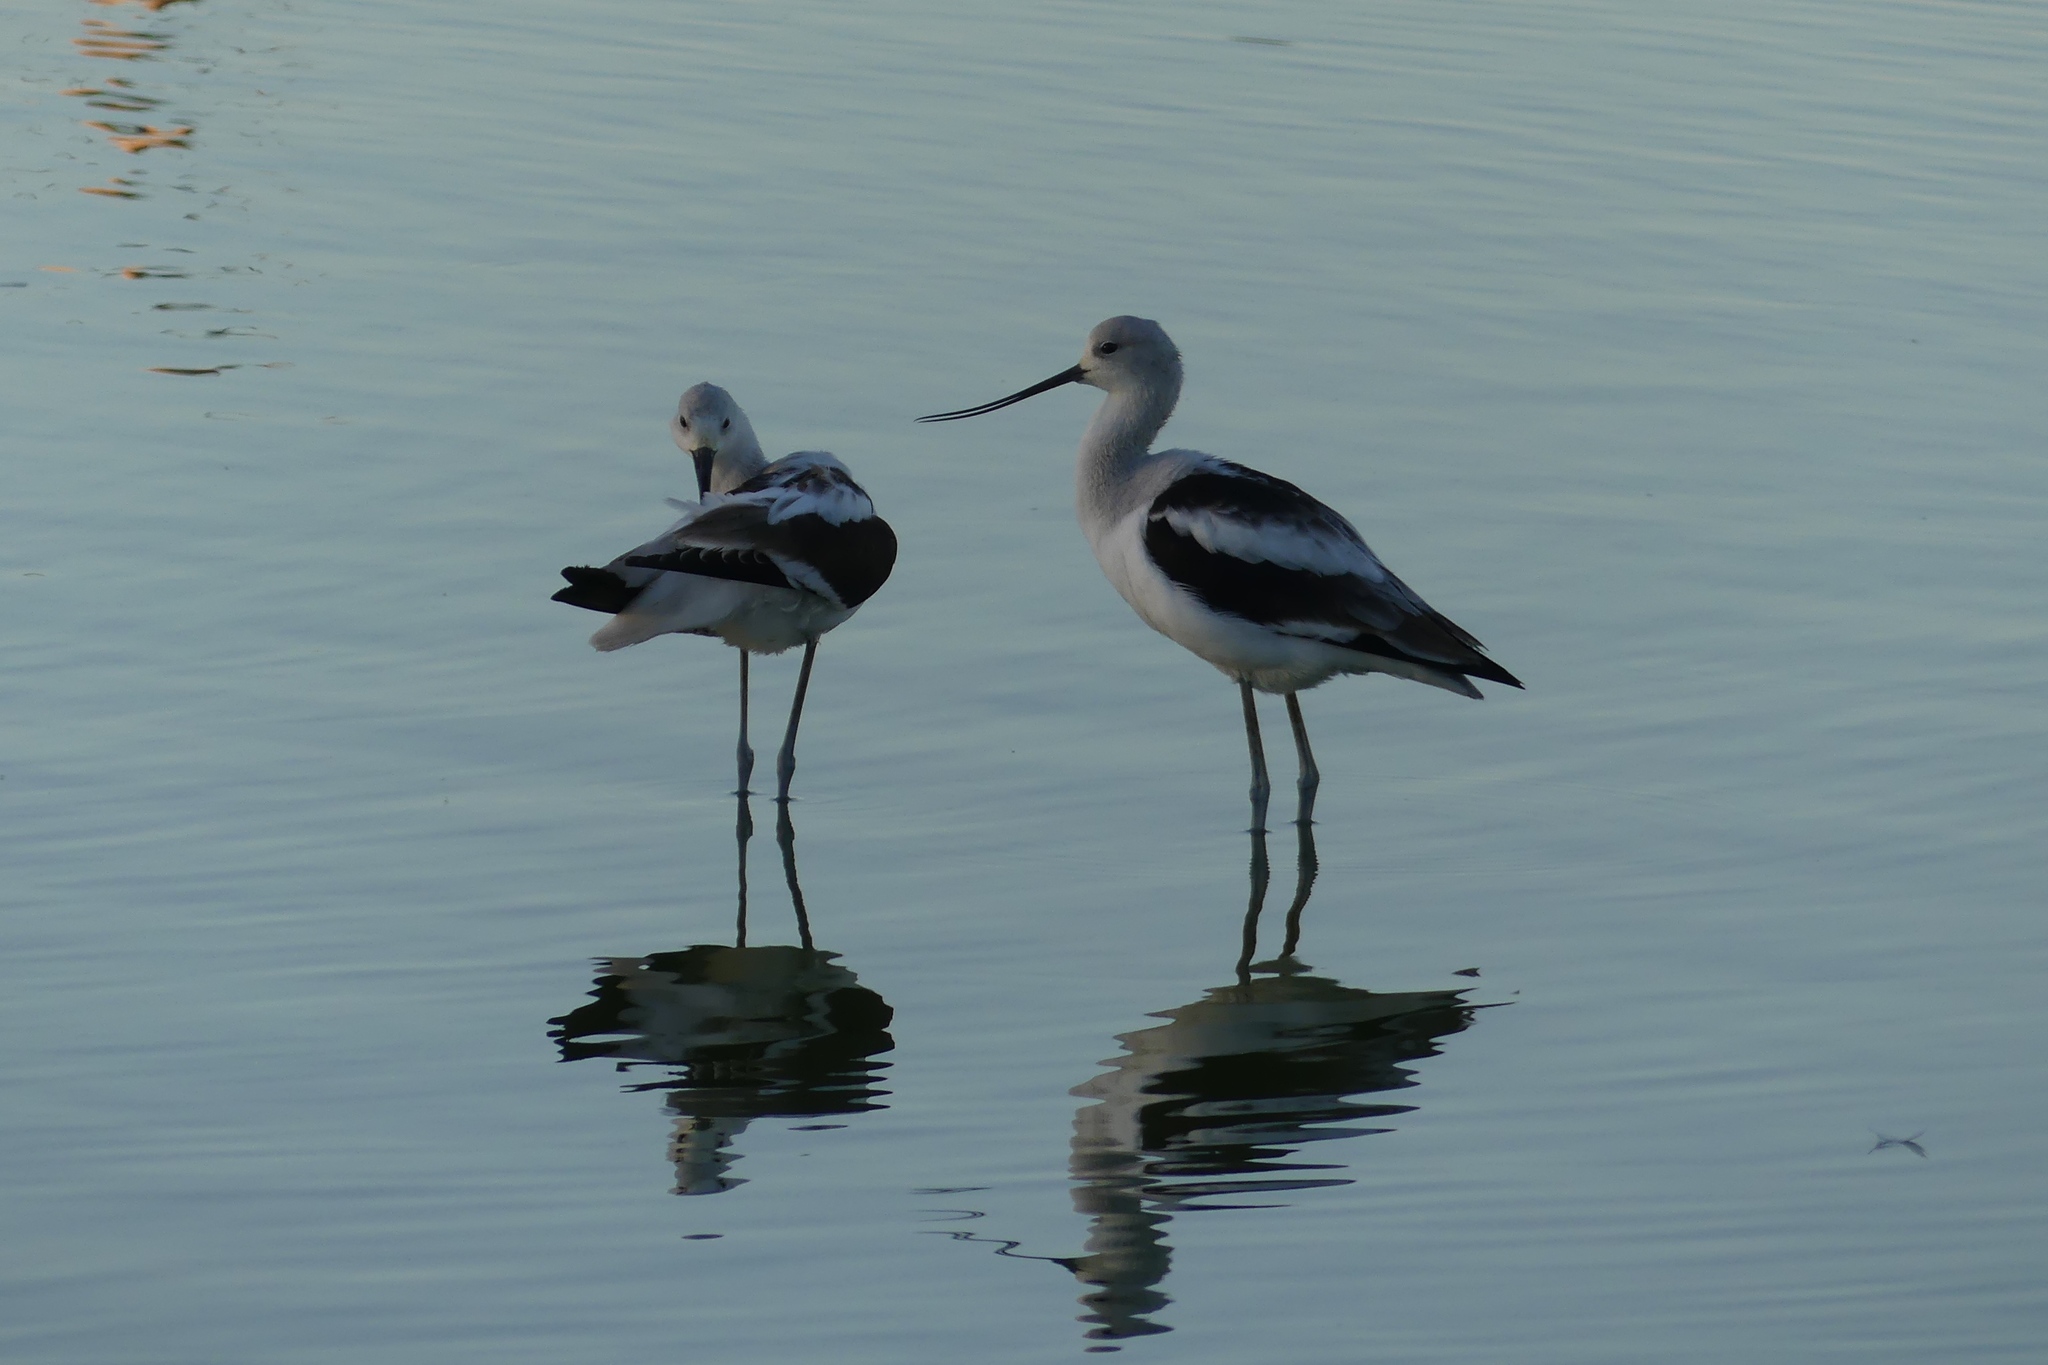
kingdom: Animalia
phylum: Chordata
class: Aves
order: Charadriiformes
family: Recurvirostridae
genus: Recurvirostra
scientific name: Recurvirostra americana
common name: American avocet
